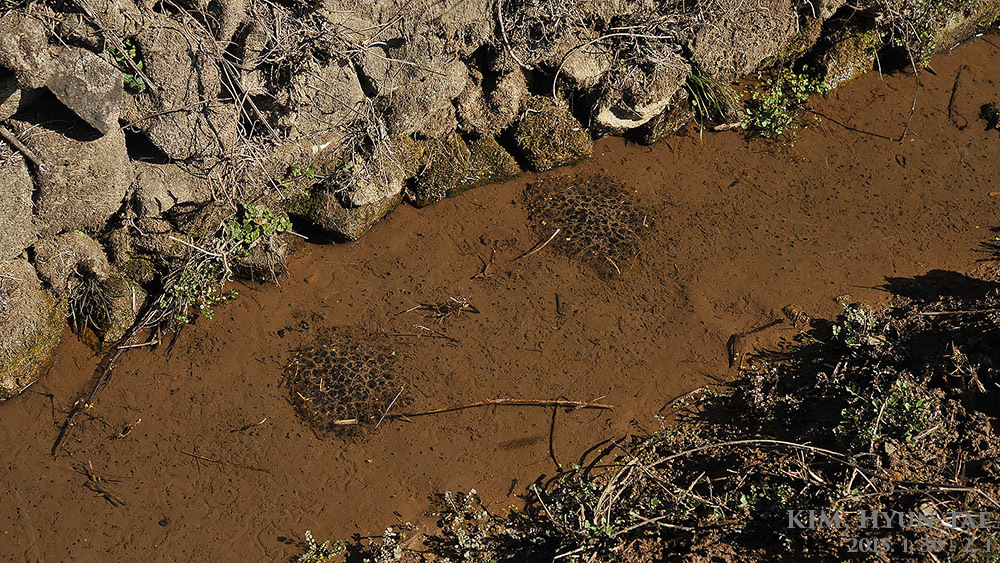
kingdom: Animalia
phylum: Chordata
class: Amphibia
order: Anura
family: Ranidae
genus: Rana
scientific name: Rana uenoi
